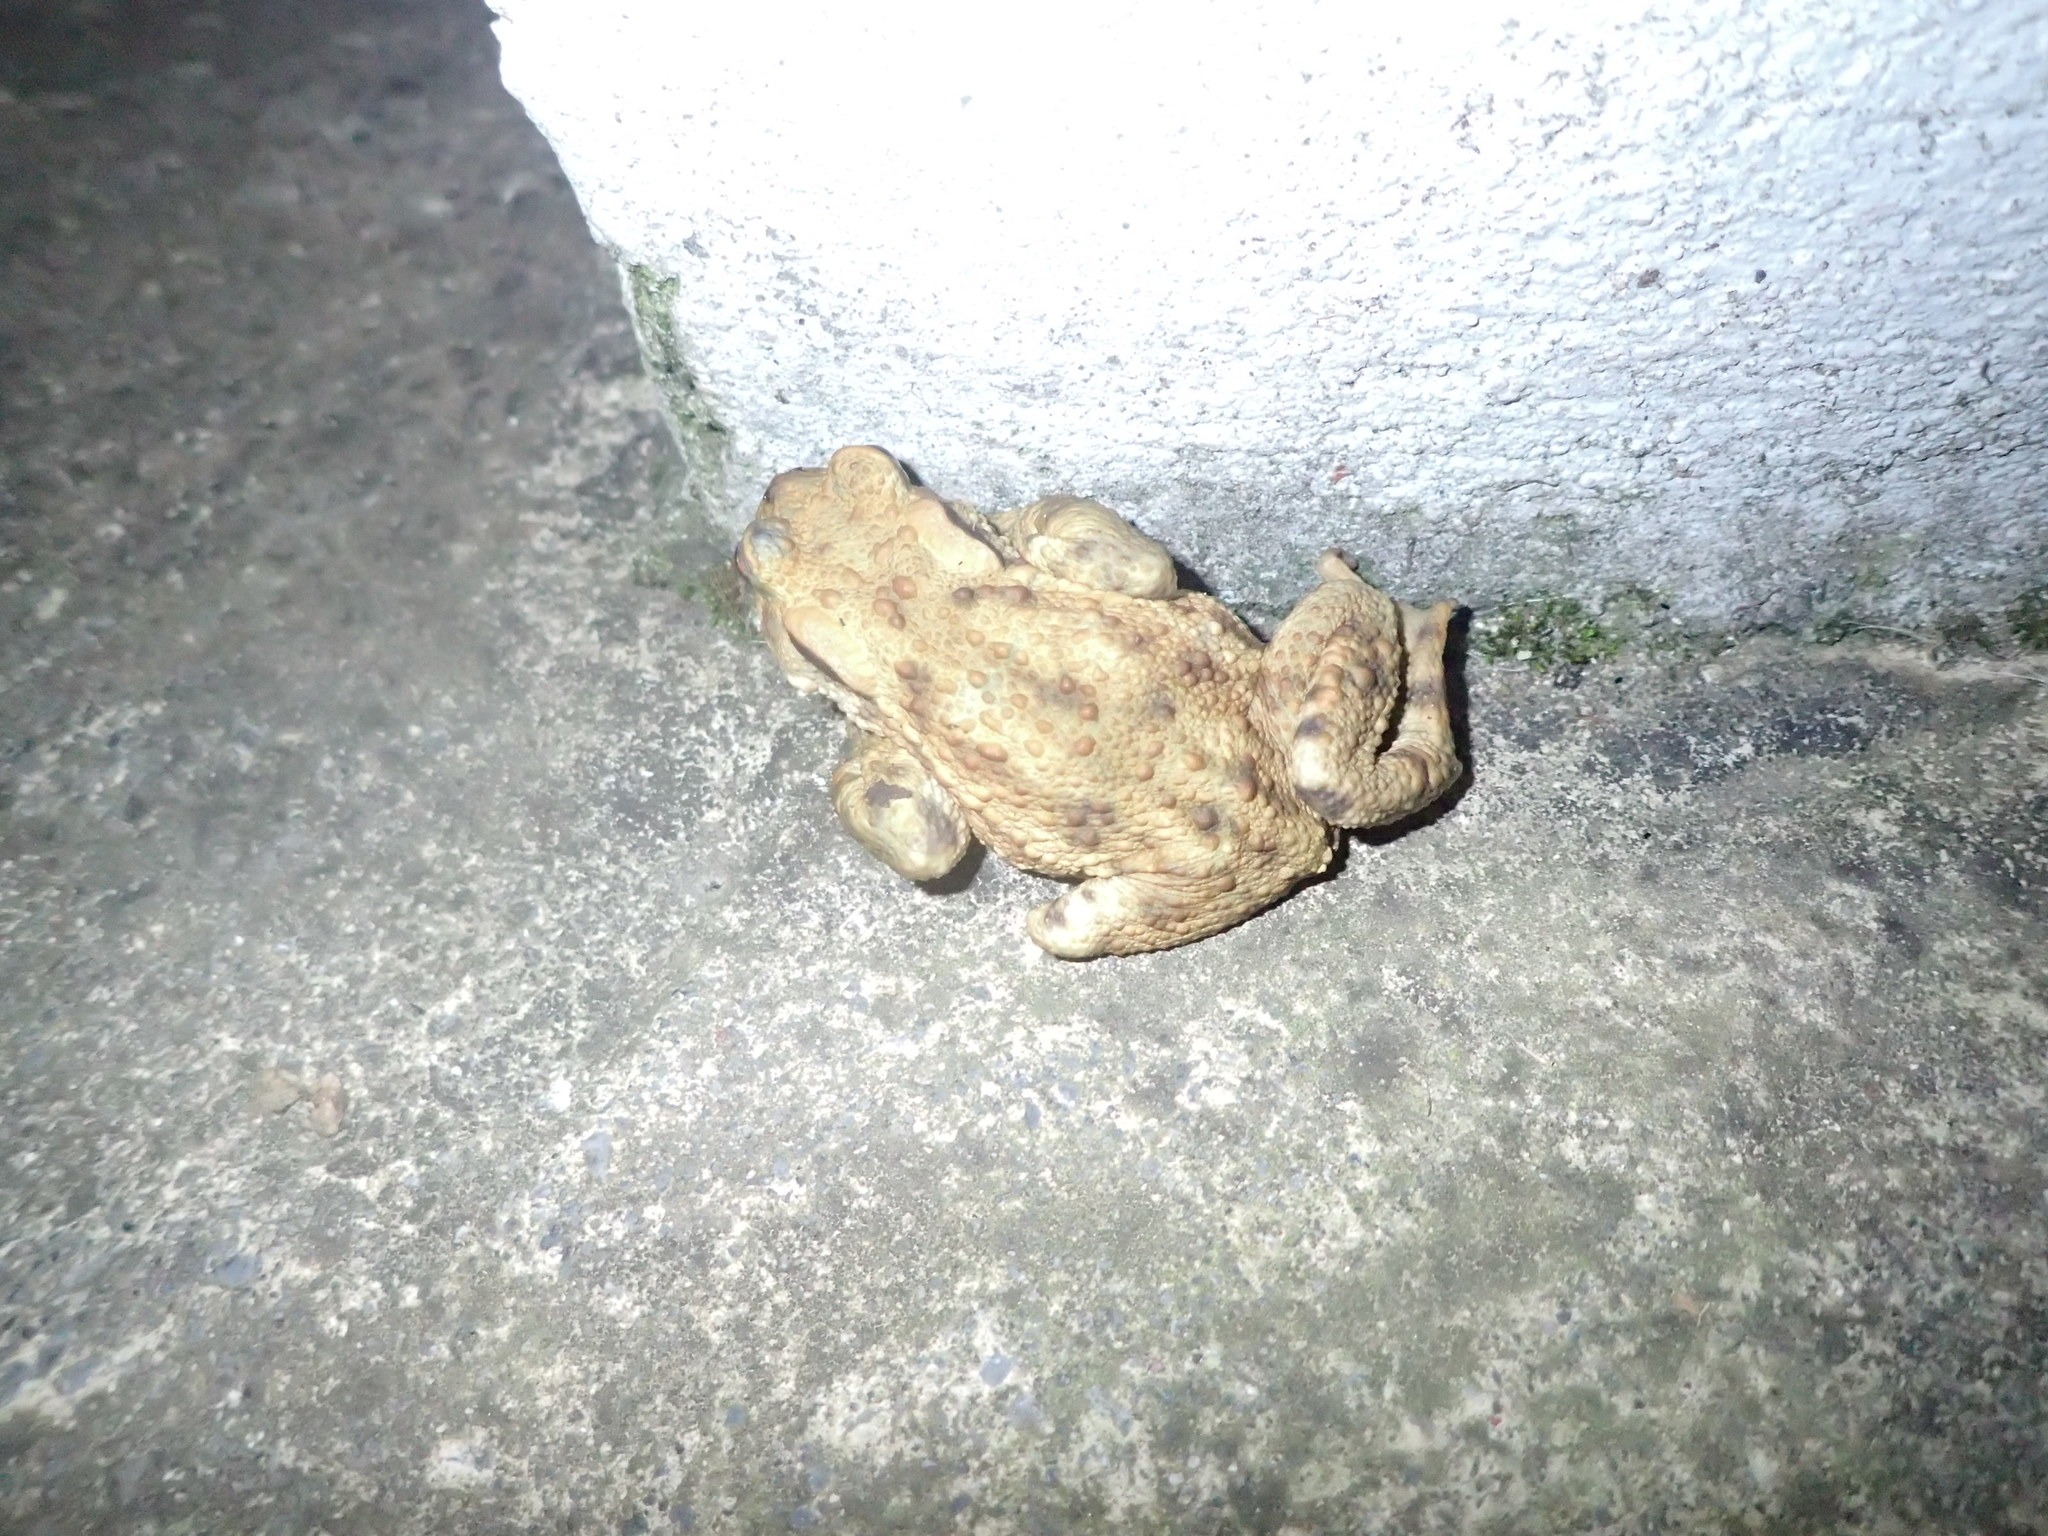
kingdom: Animalia
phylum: Chordata
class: Amphibia
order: Anura
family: Bufonidae
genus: Bufo
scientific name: Bufo bufo
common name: Common toad
